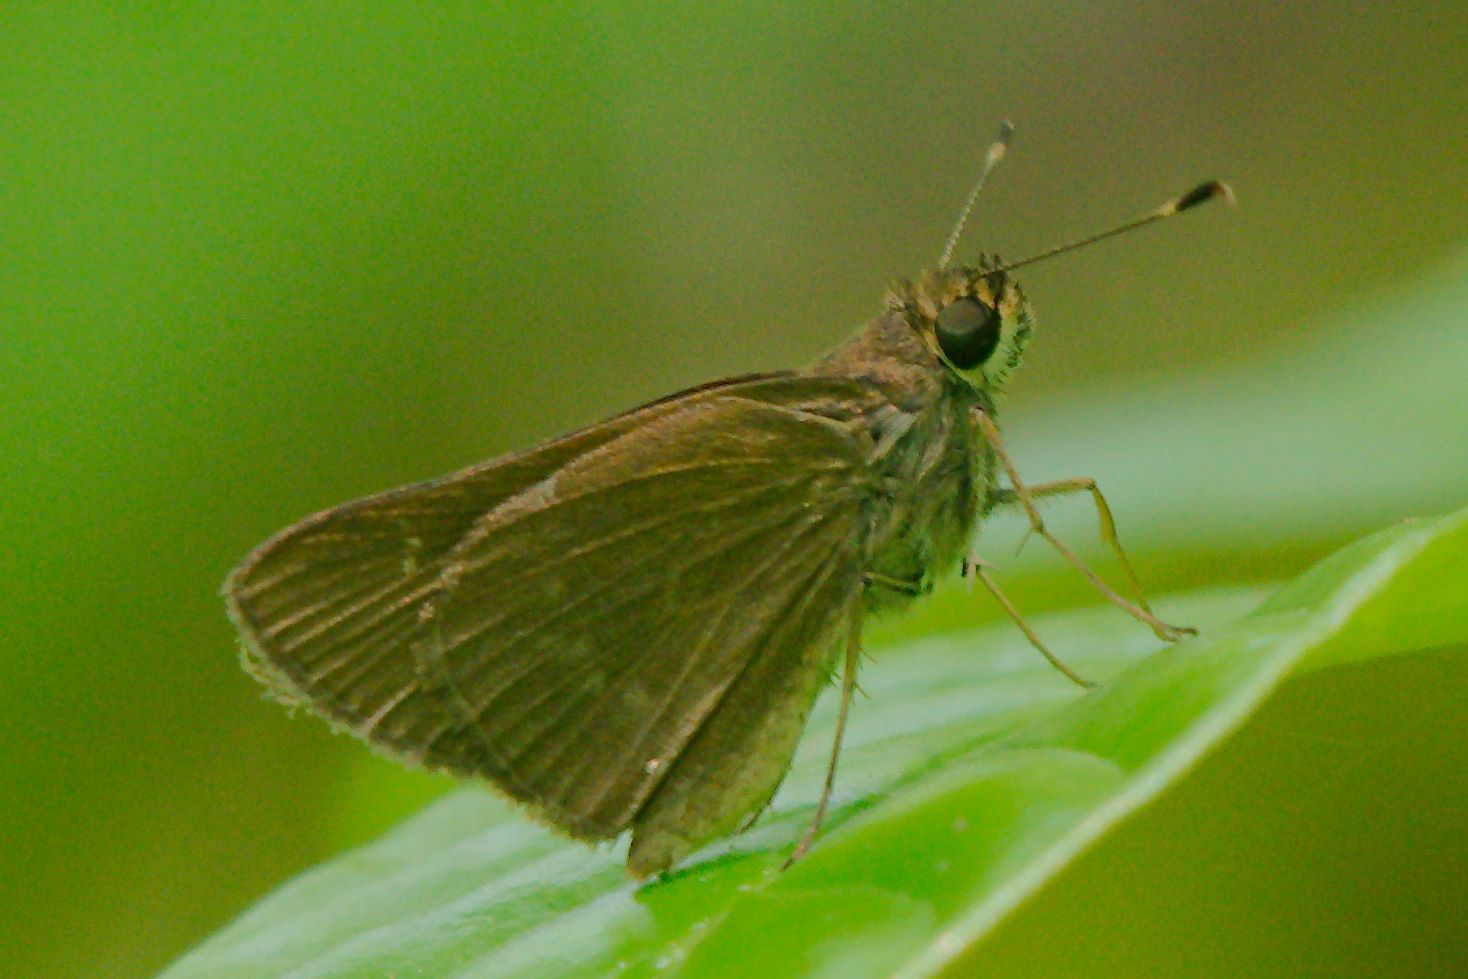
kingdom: Animalia
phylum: Arthropoda
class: Insecta
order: Lepidoptera
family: Hesperiidae
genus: Cymaenes
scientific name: Cymaenes tripunctus
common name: Dingy dotted skipper
